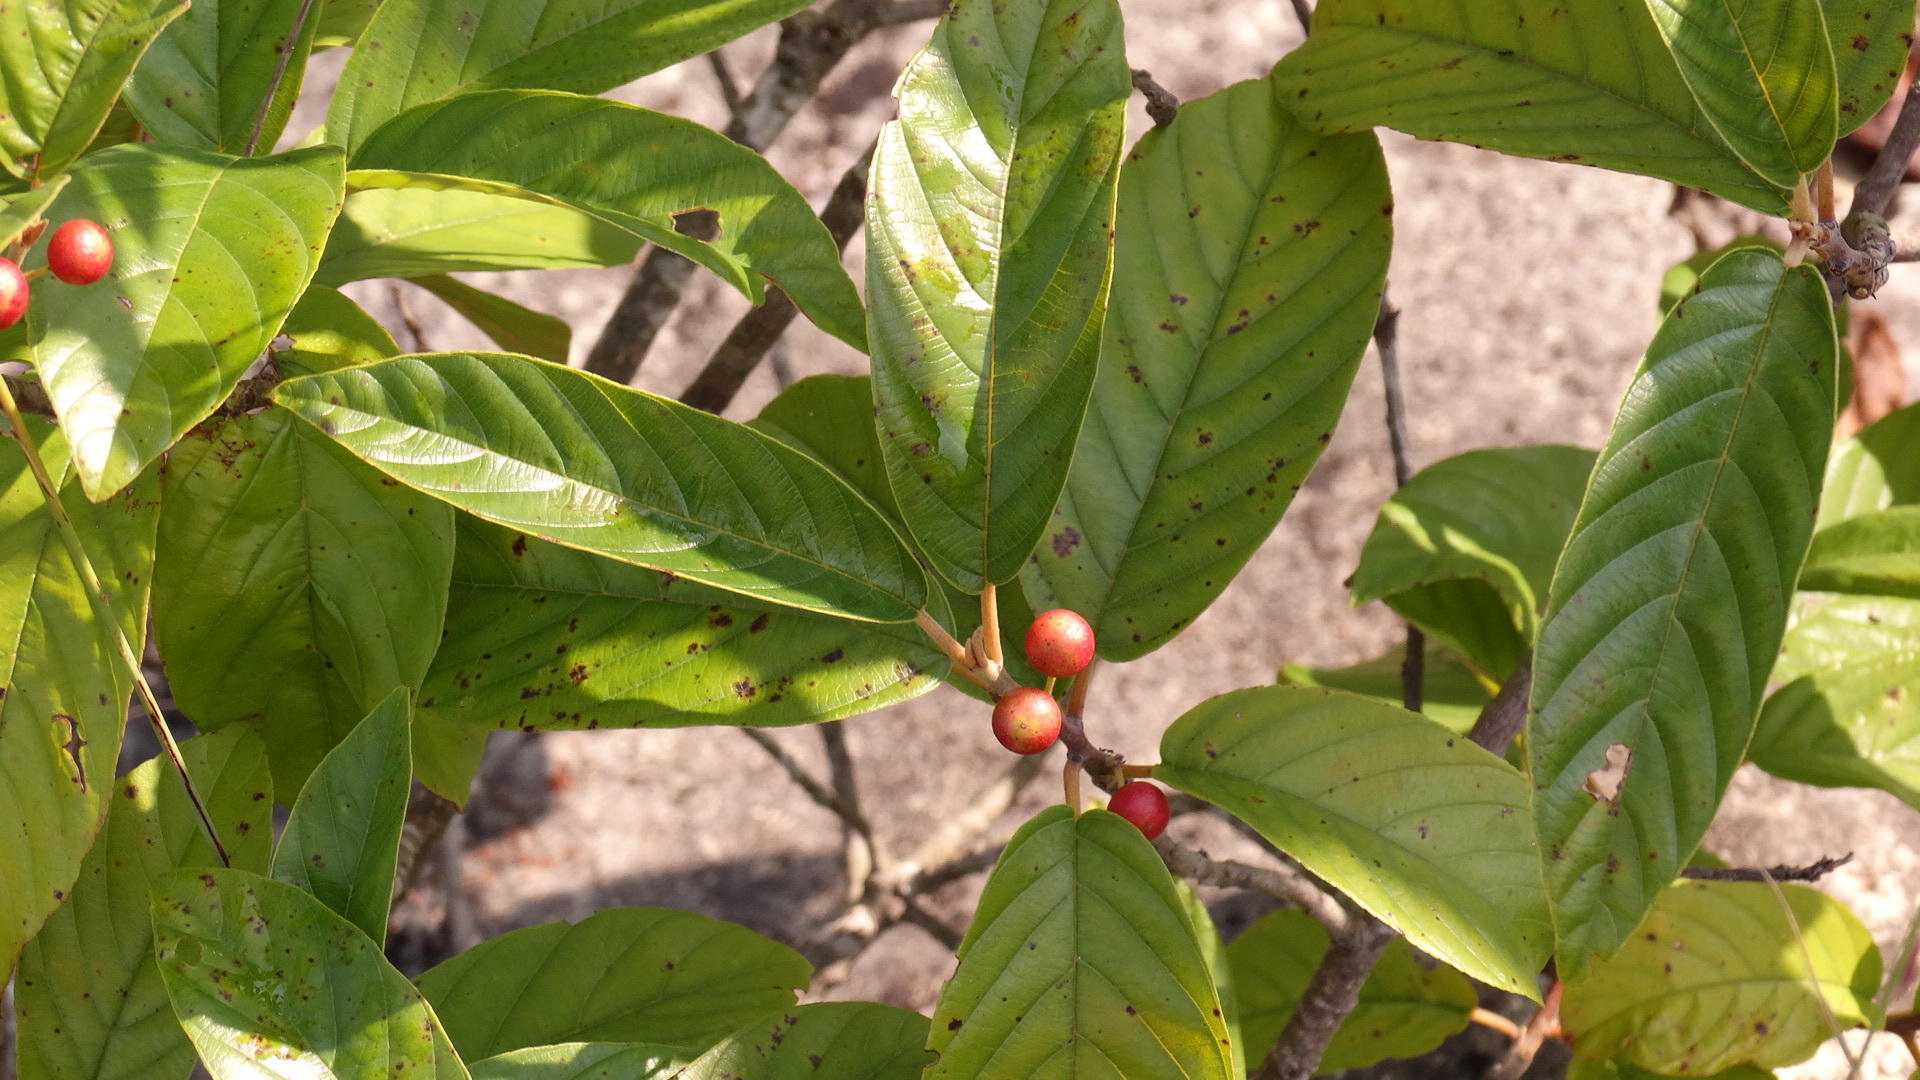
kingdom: Plantae
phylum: Tracheophyta
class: Magnoliopsida
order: Rosales
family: Rhamnaceae
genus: Frangula
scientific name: Frangula caroliniana
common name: Carolina buckthorn
